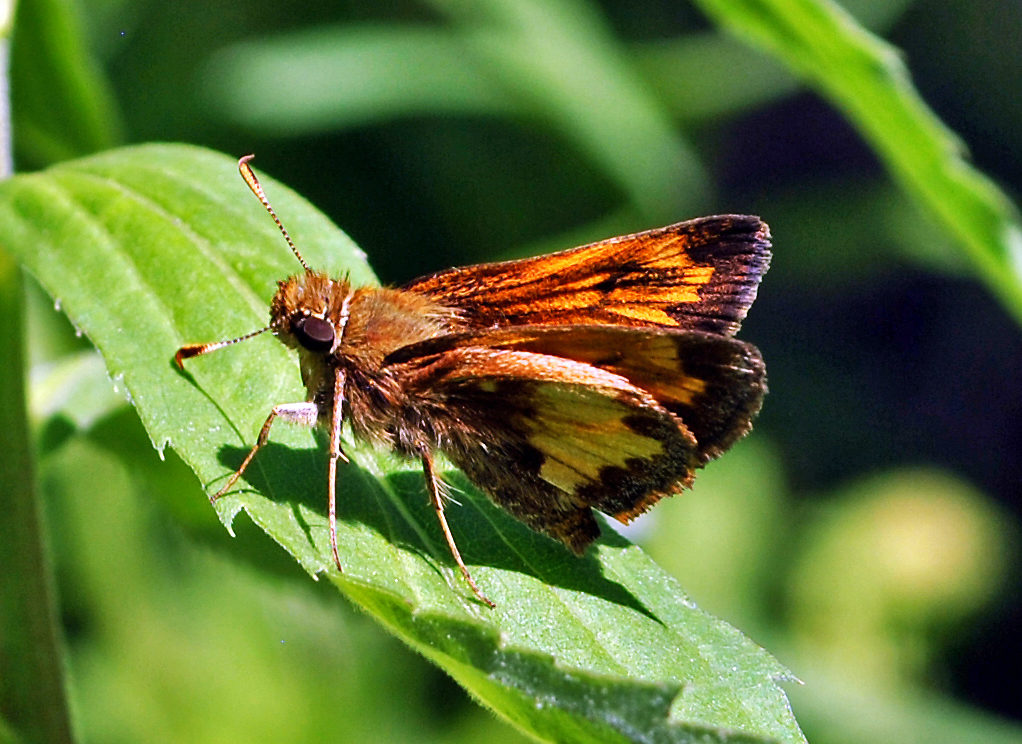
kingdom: Animalia
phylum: Arthropoda
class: Insecta
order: Lepidoptera
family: Hesperiidae
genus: Lon
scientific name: Lon hobomok
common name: Hobomok skipper
